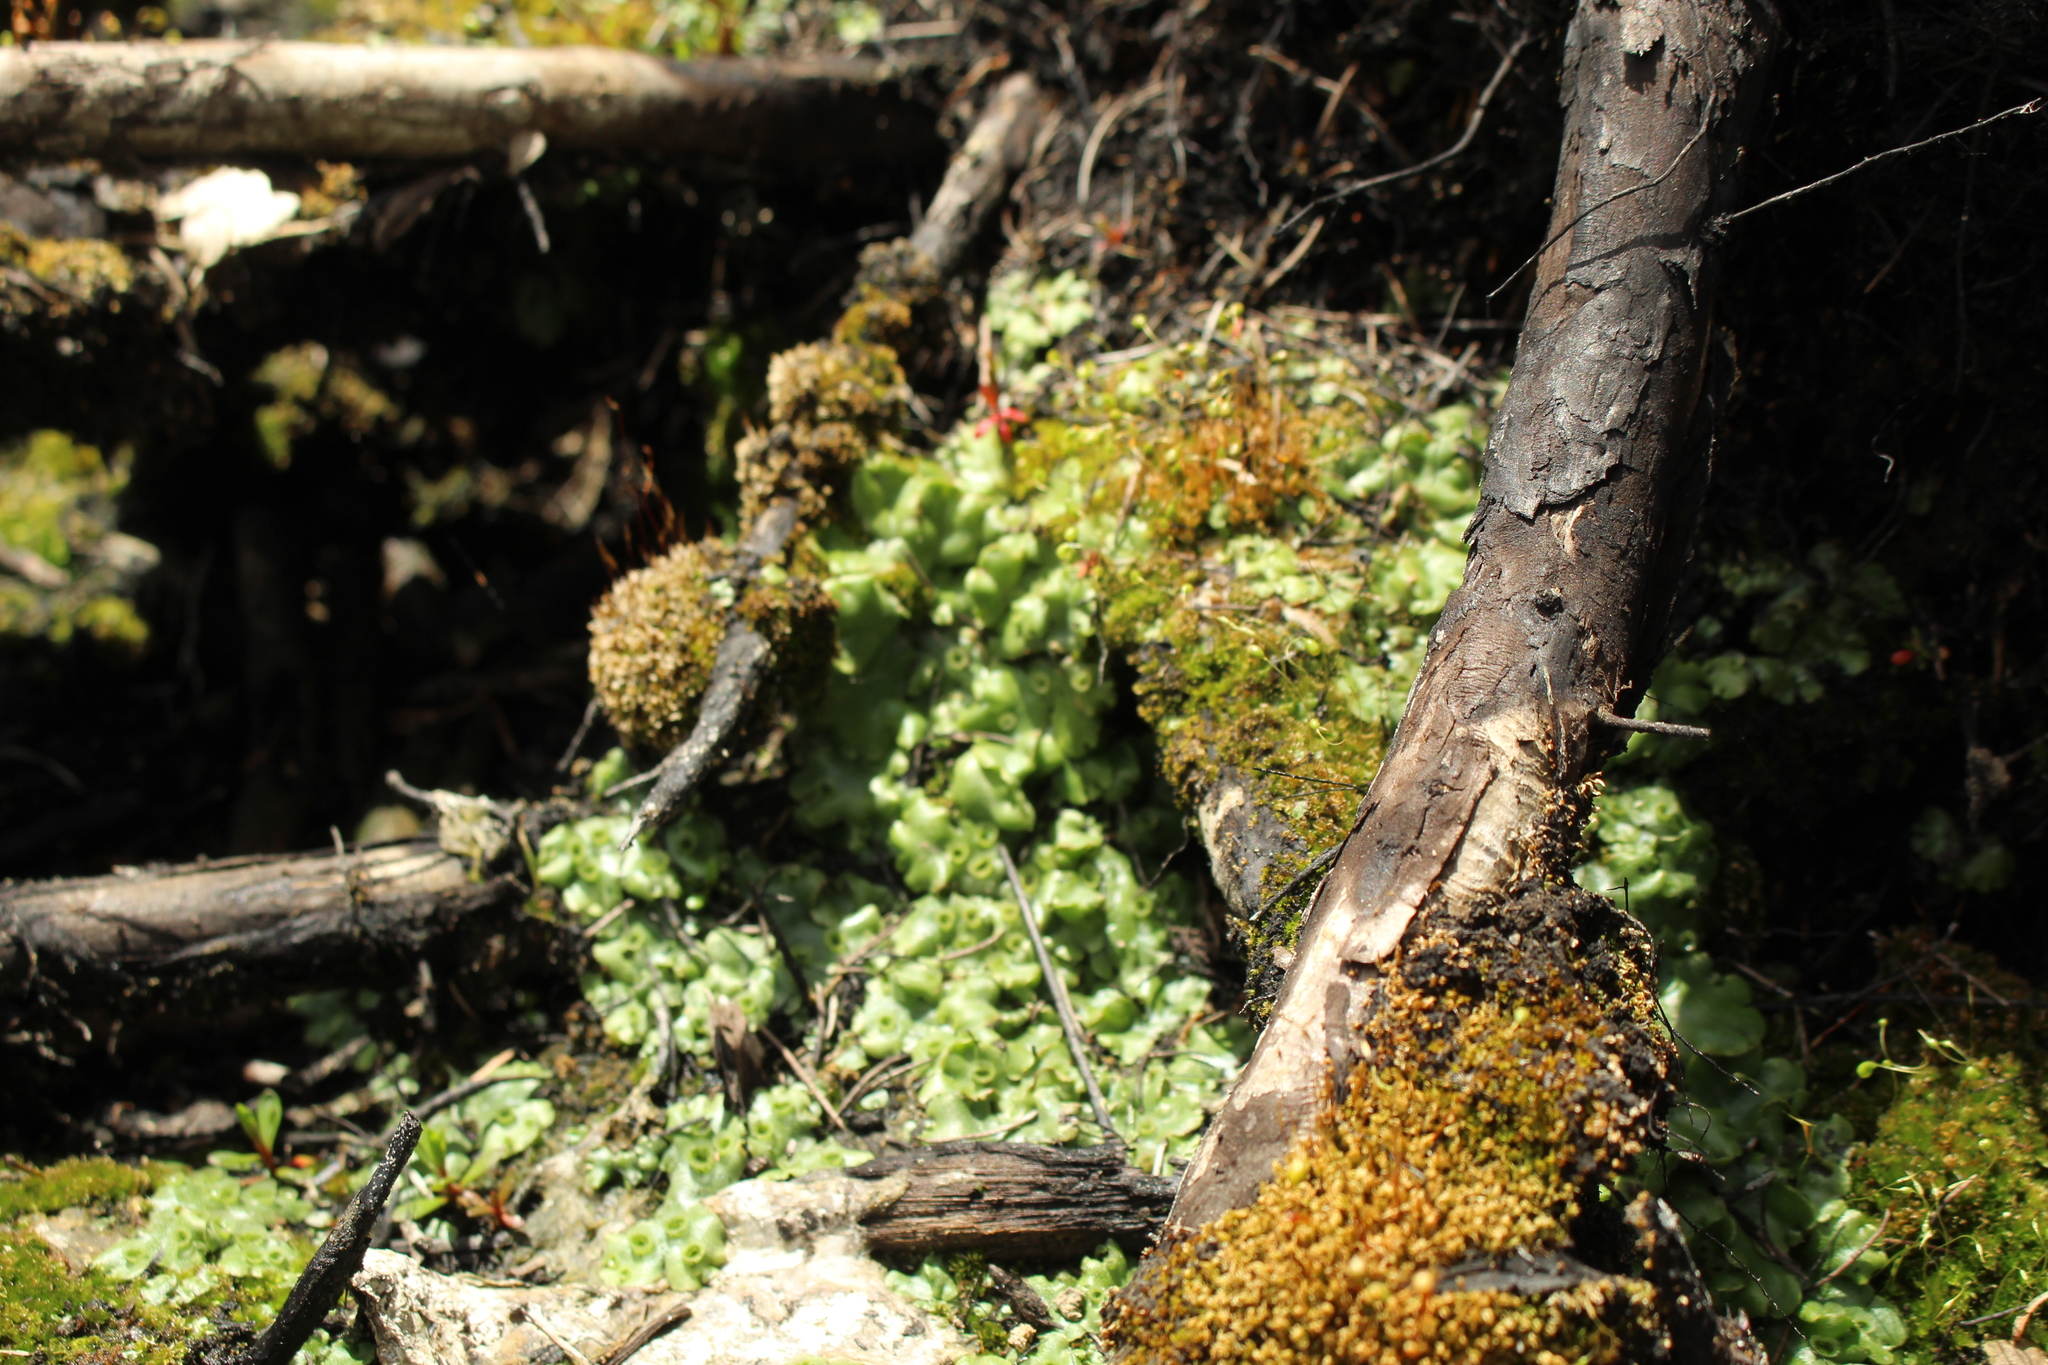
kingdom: Plantae
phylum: Marchantiophyta
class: Marchantiopsida
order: Marchantiales
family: Marchantiaceae
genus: Marchantia
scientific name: Marchantia berteroana
